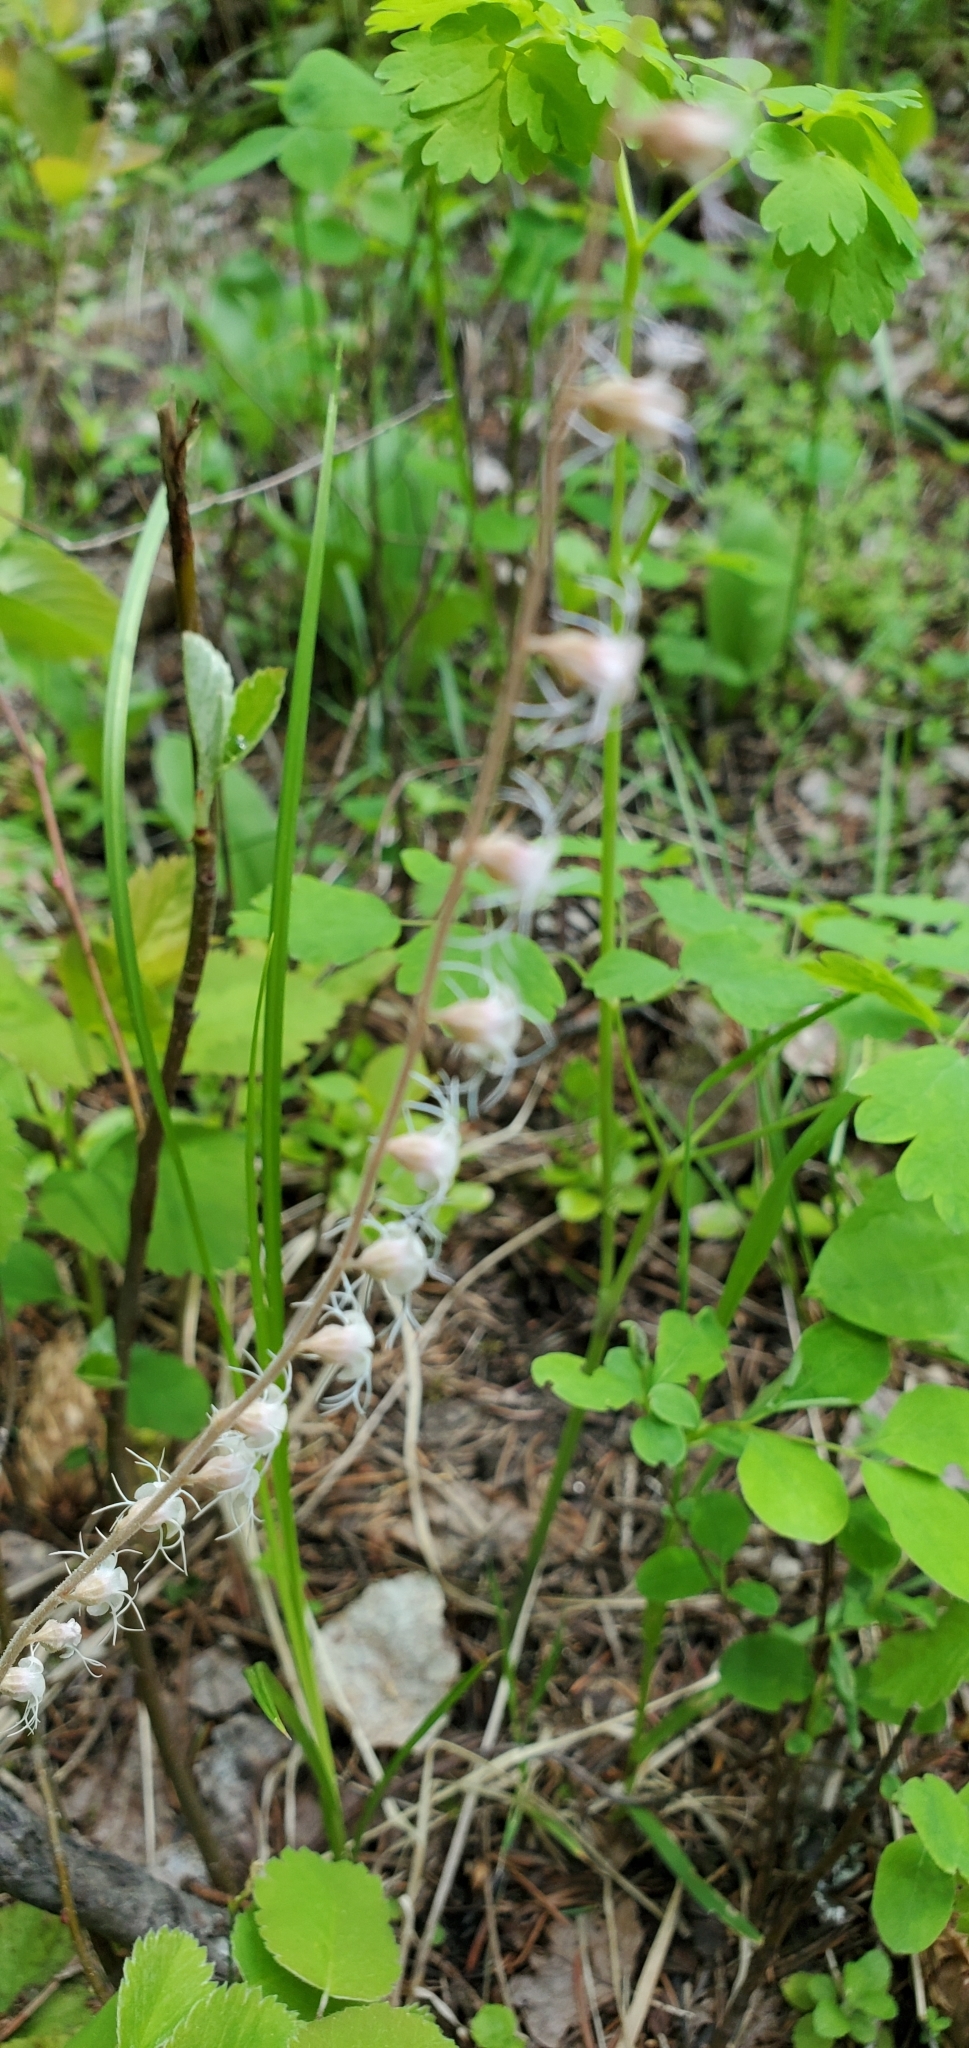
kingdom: Plantae
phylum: Tracheophyta
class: Magnoliopsida
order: Saxifragales
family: Saxifragaceae
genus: Ozomelis
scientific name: Ozomelis stauropetala
